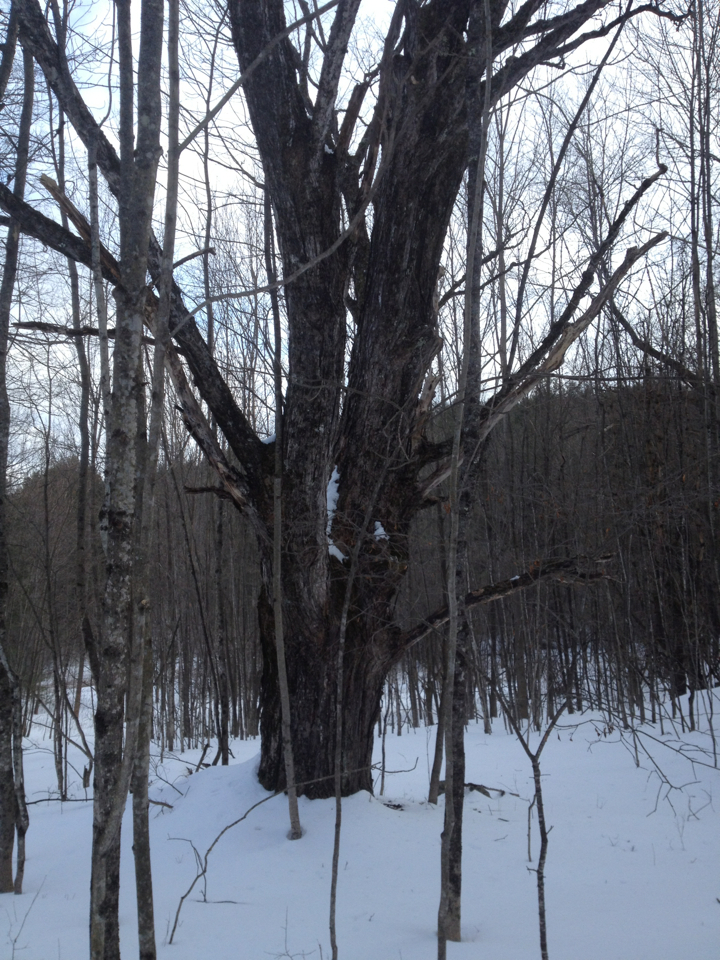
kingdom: Plantae
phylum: Tracheophyta
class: Magnoliopsida
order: Sapindales
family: Sapindaceae
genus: Acer
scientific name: Acer saccharum
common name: Sugar maple
